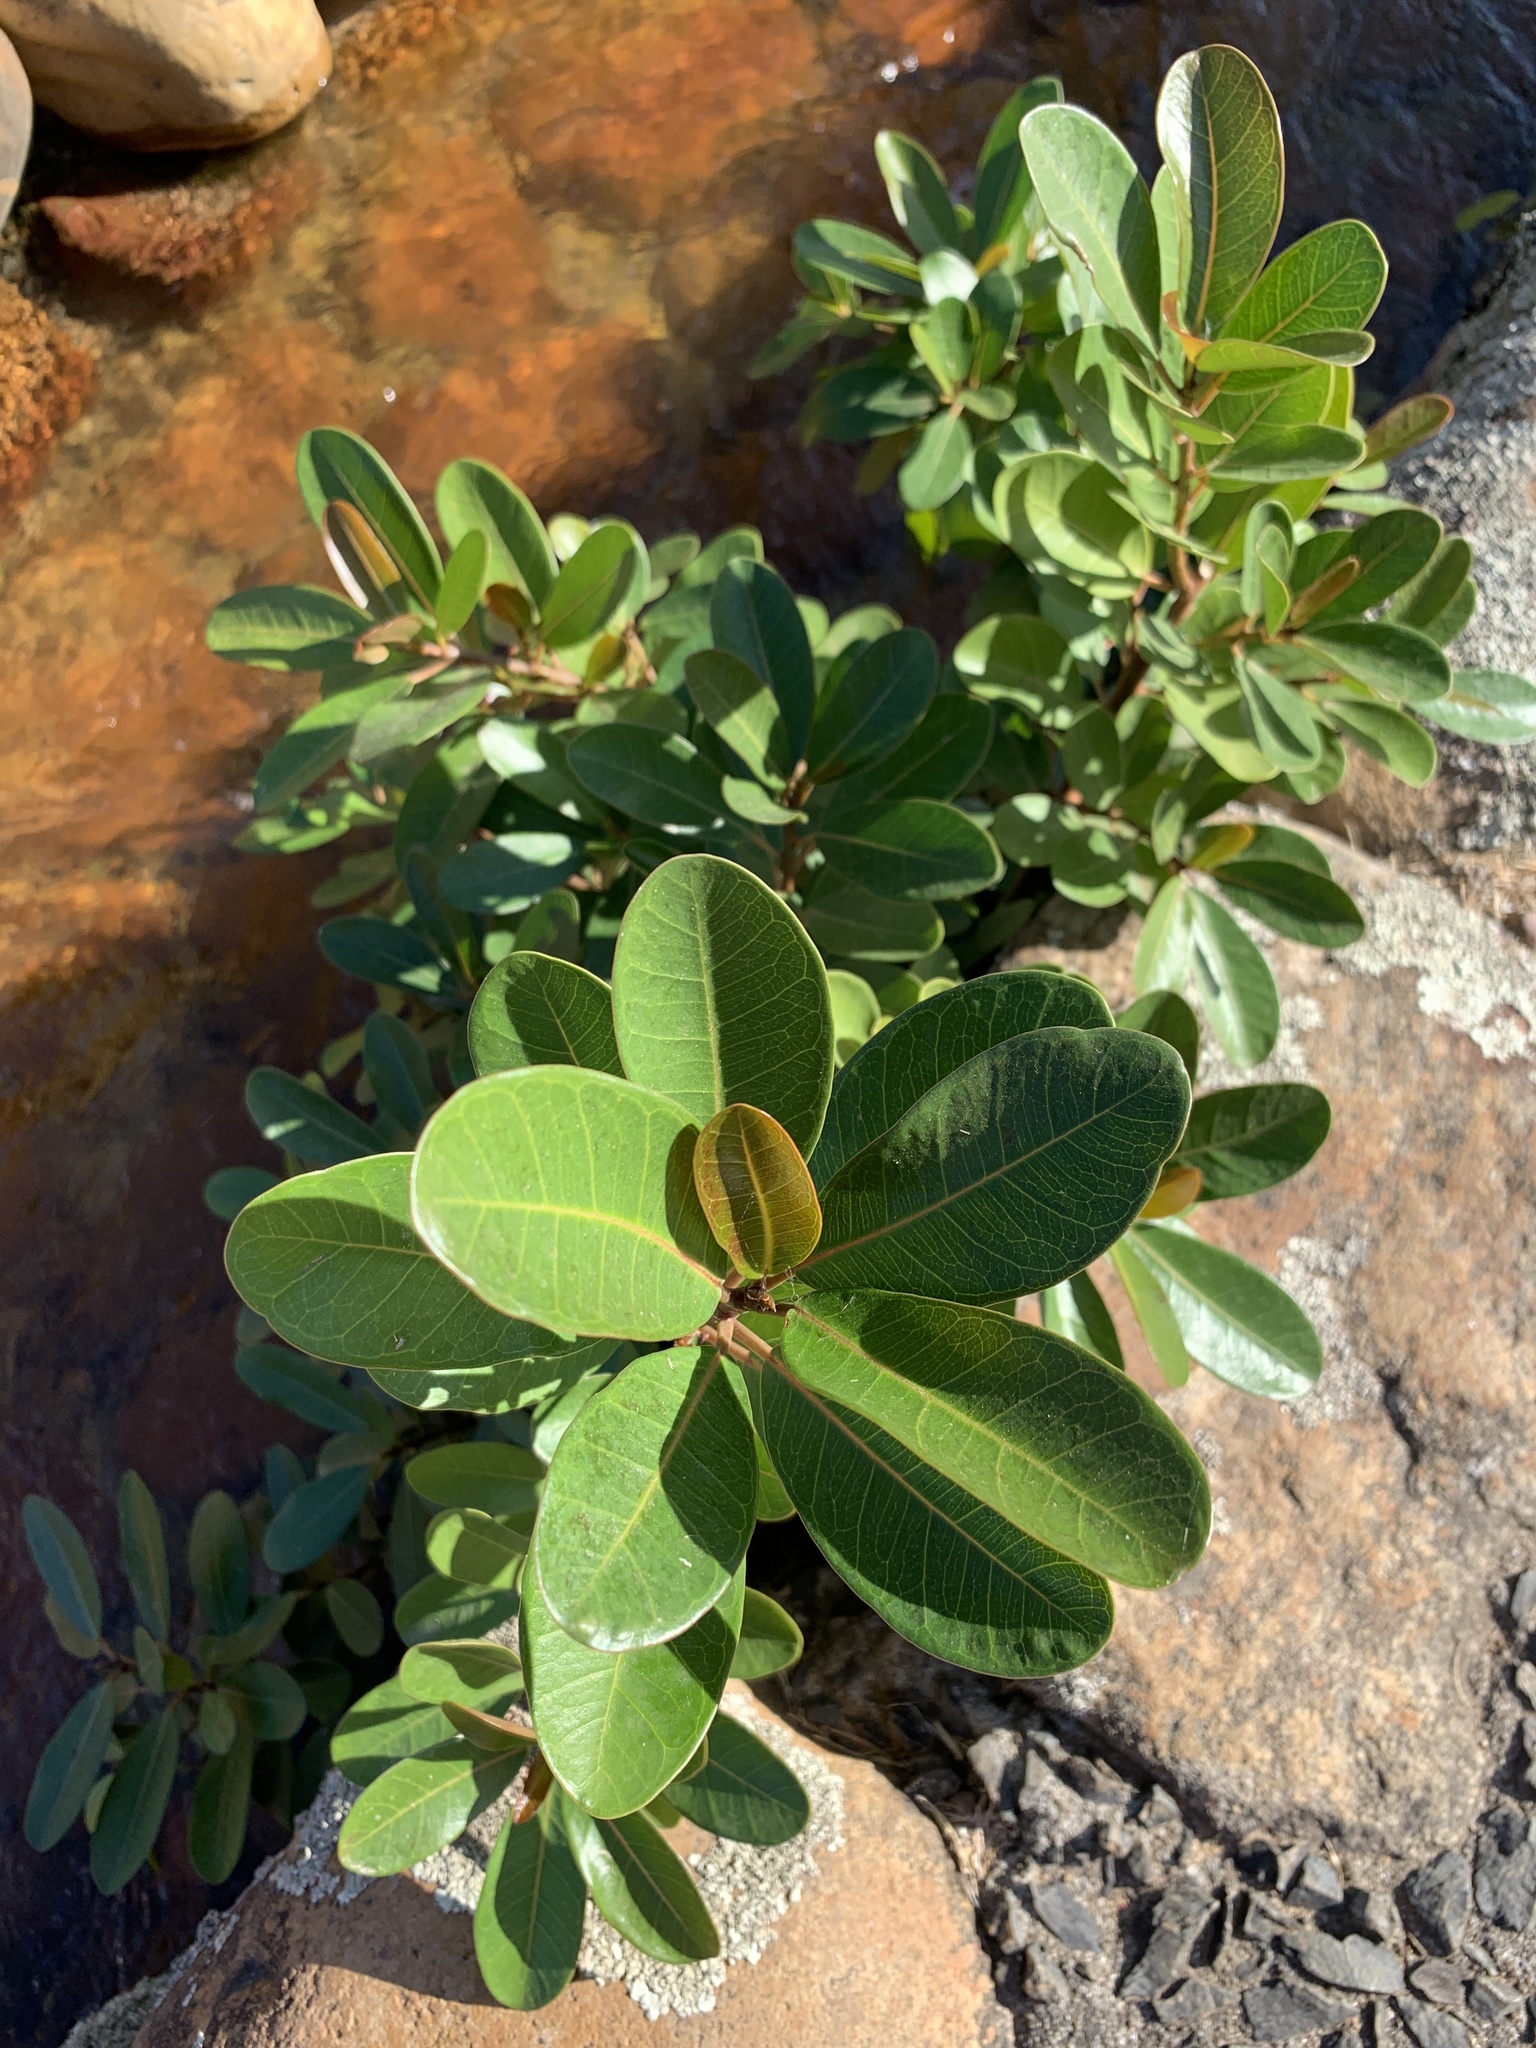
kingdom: Plantae
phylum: Tracheophyta
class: Magnoliopsida
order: Rosales
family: Moraceae
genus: Ficus
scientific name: Ficus thonningii
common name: Fig
